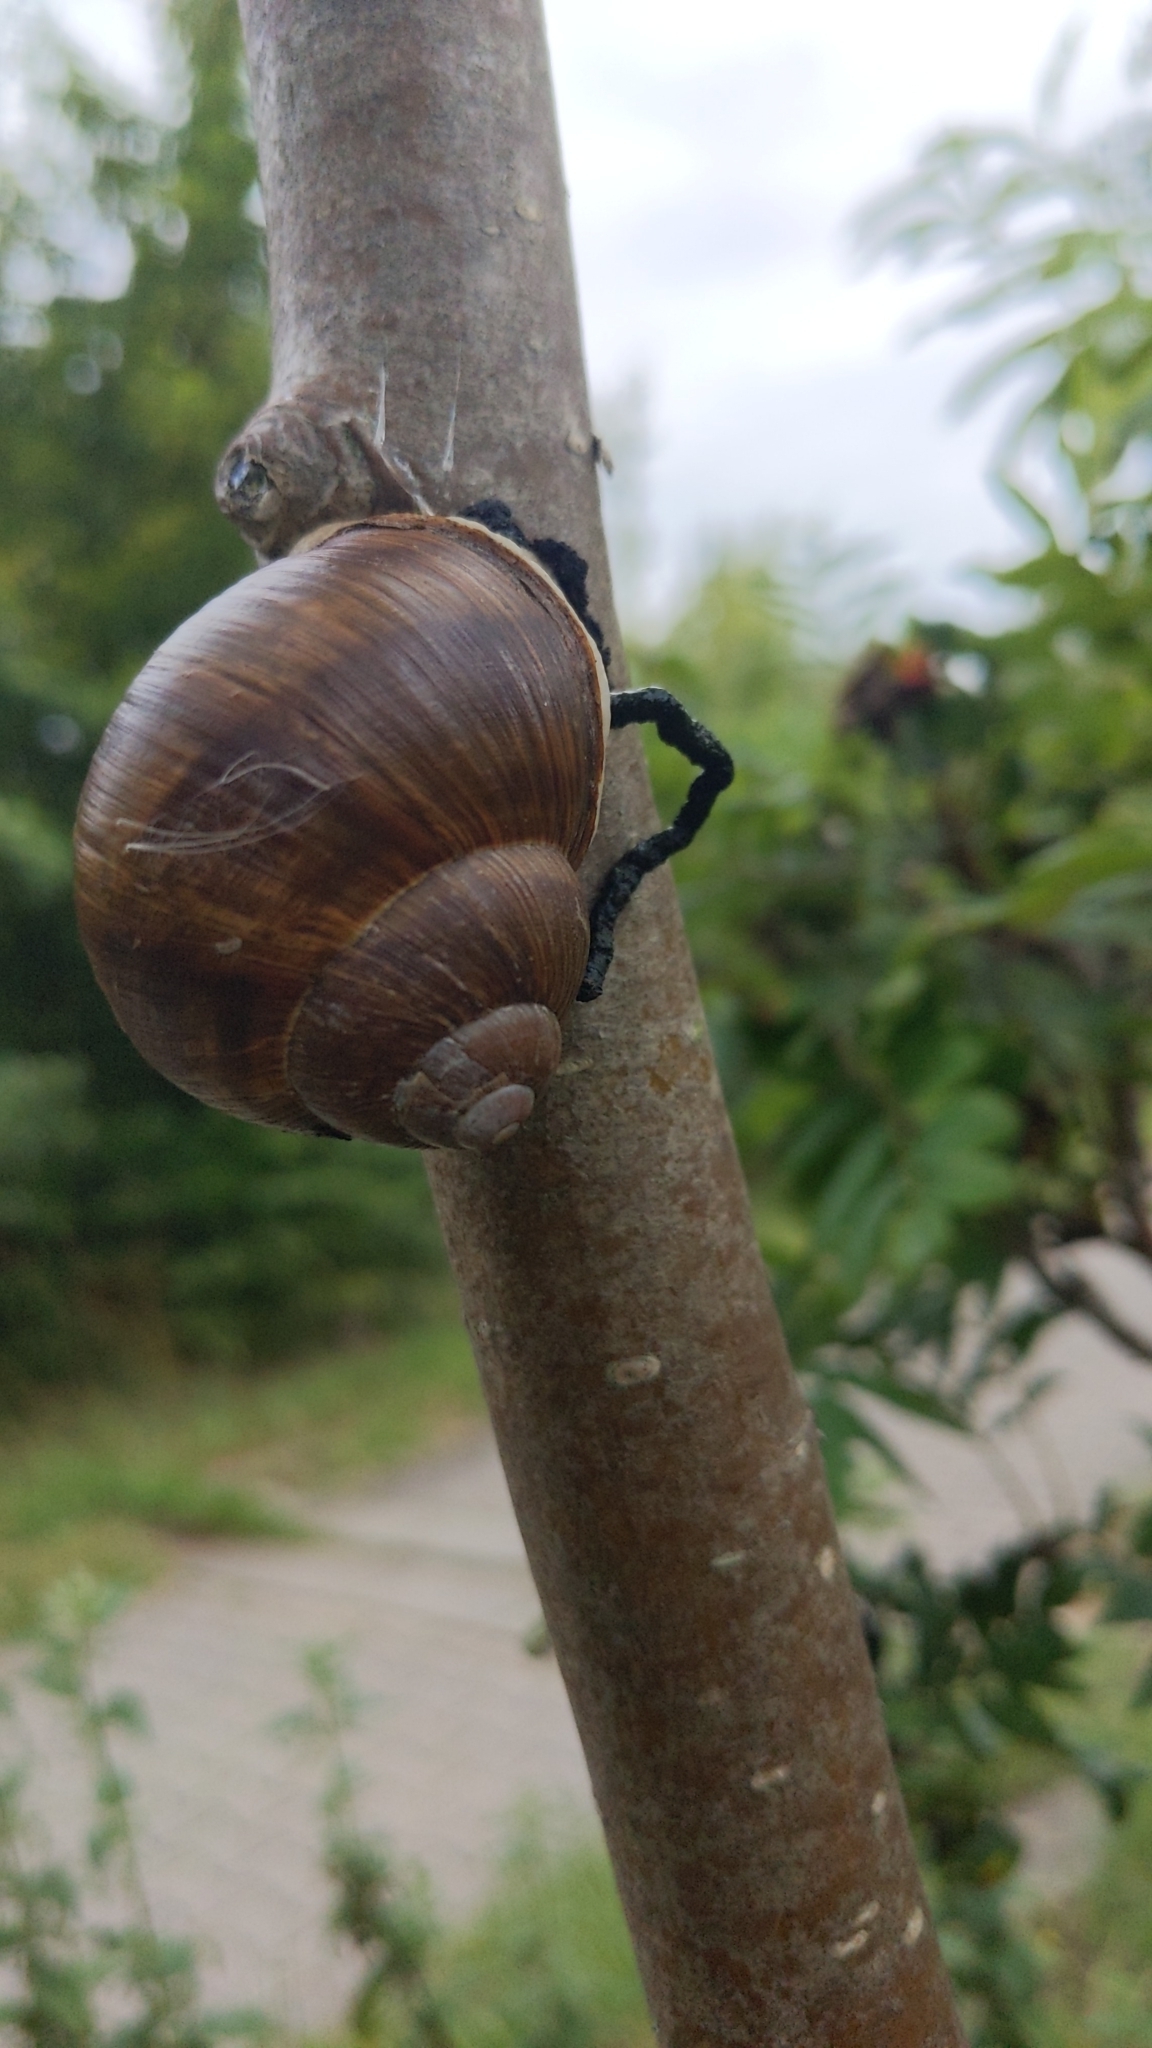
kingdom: Animalia
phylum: Mollusca
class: Gastropoda
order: Stylommatophora
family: Helicidae
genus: Helix
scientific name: Helix pomatia
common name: Roman snail
